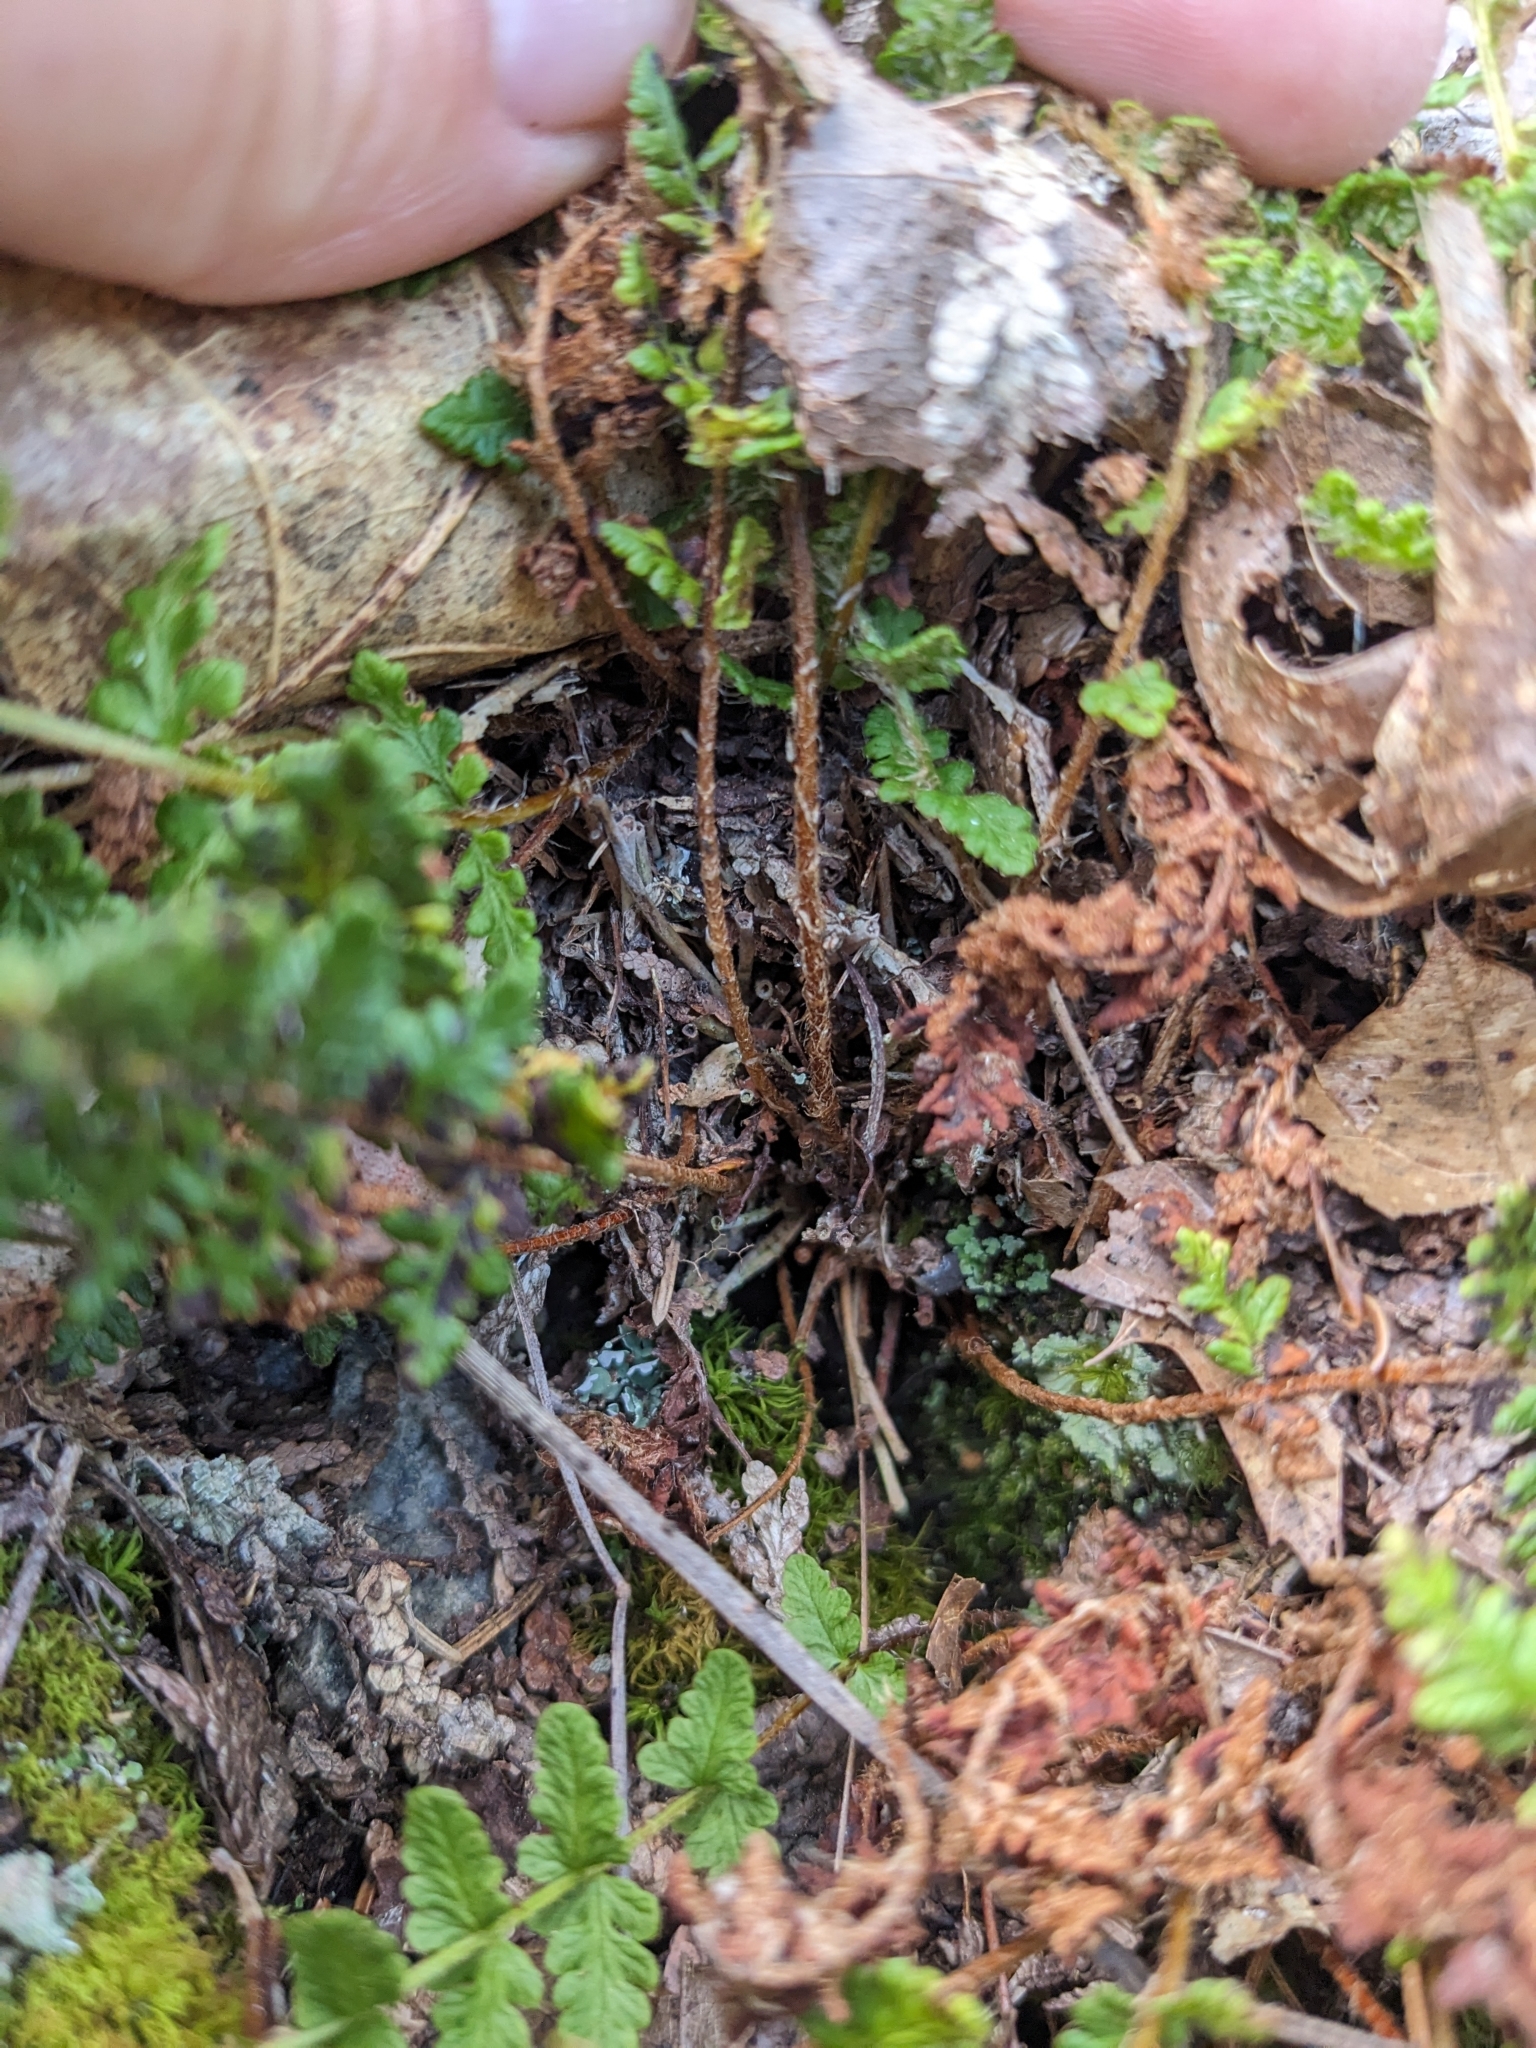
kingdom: Plantae
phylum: Tracheophyta
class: Polypodiopsida
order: Polypodiales
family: Woodsiaceae
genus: Woodsia
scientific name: Woodsia ilvensis
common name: Fragrant woodsia
